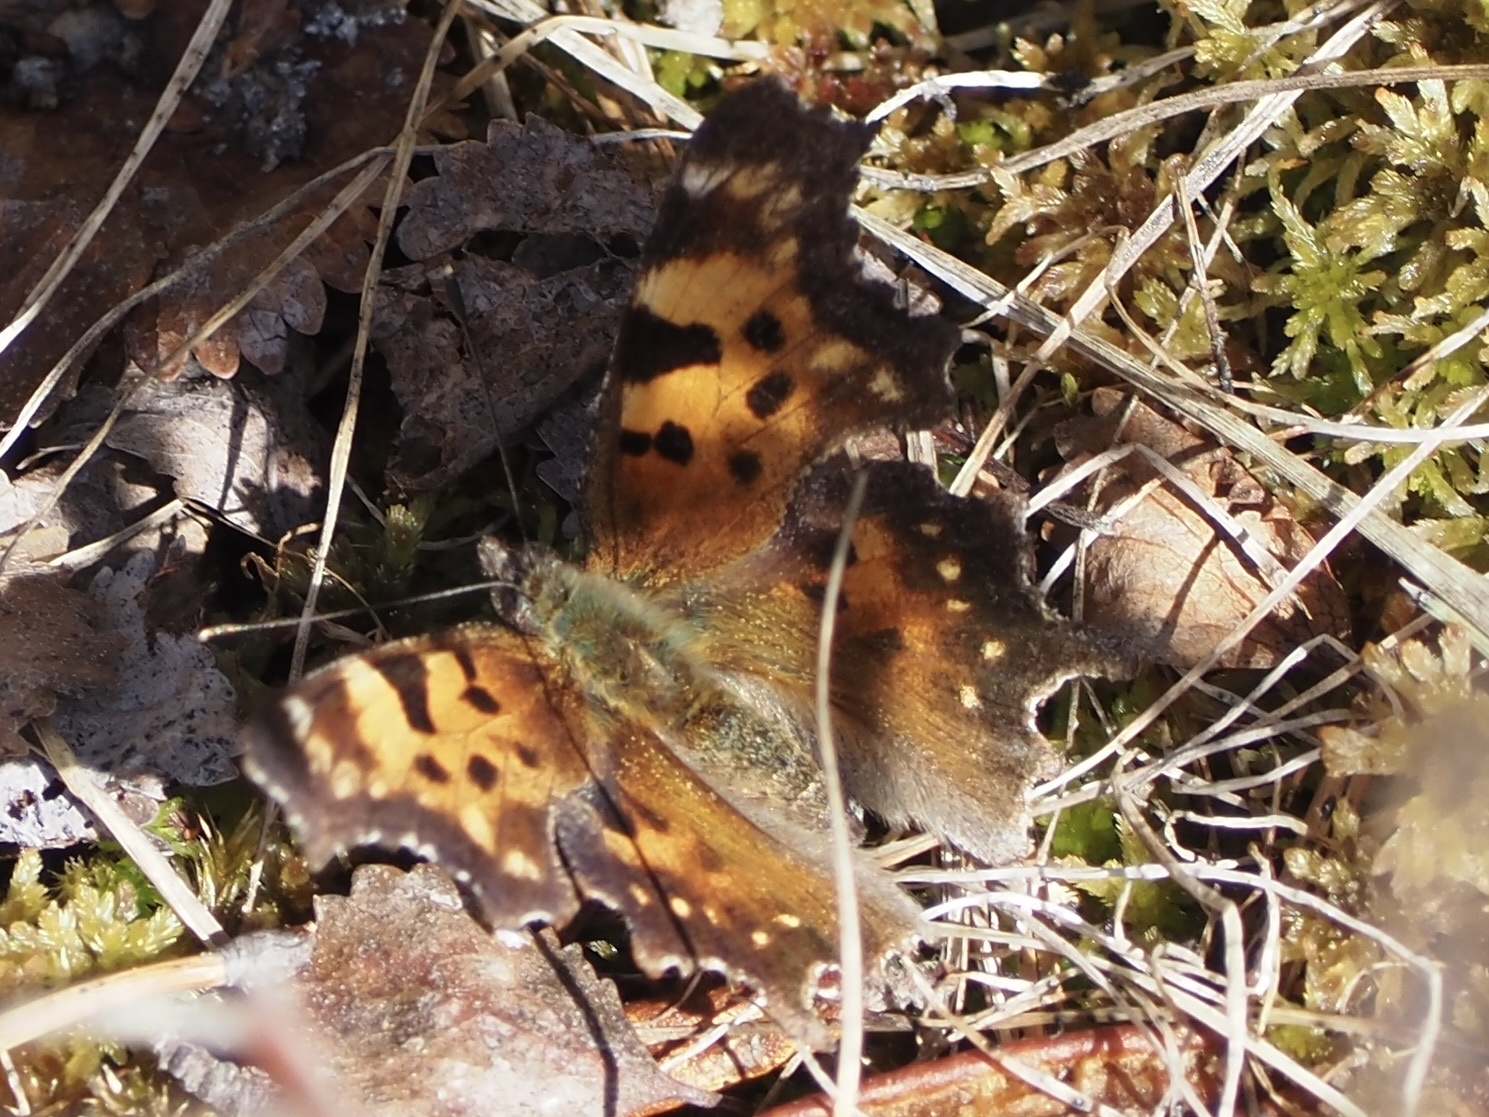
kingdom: Animalia
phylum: Arthropoda
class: Insecta
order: Lepidoptera
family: Nymphalidae
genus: Polygonia
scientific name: Polygonia faunus
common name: Green comma
